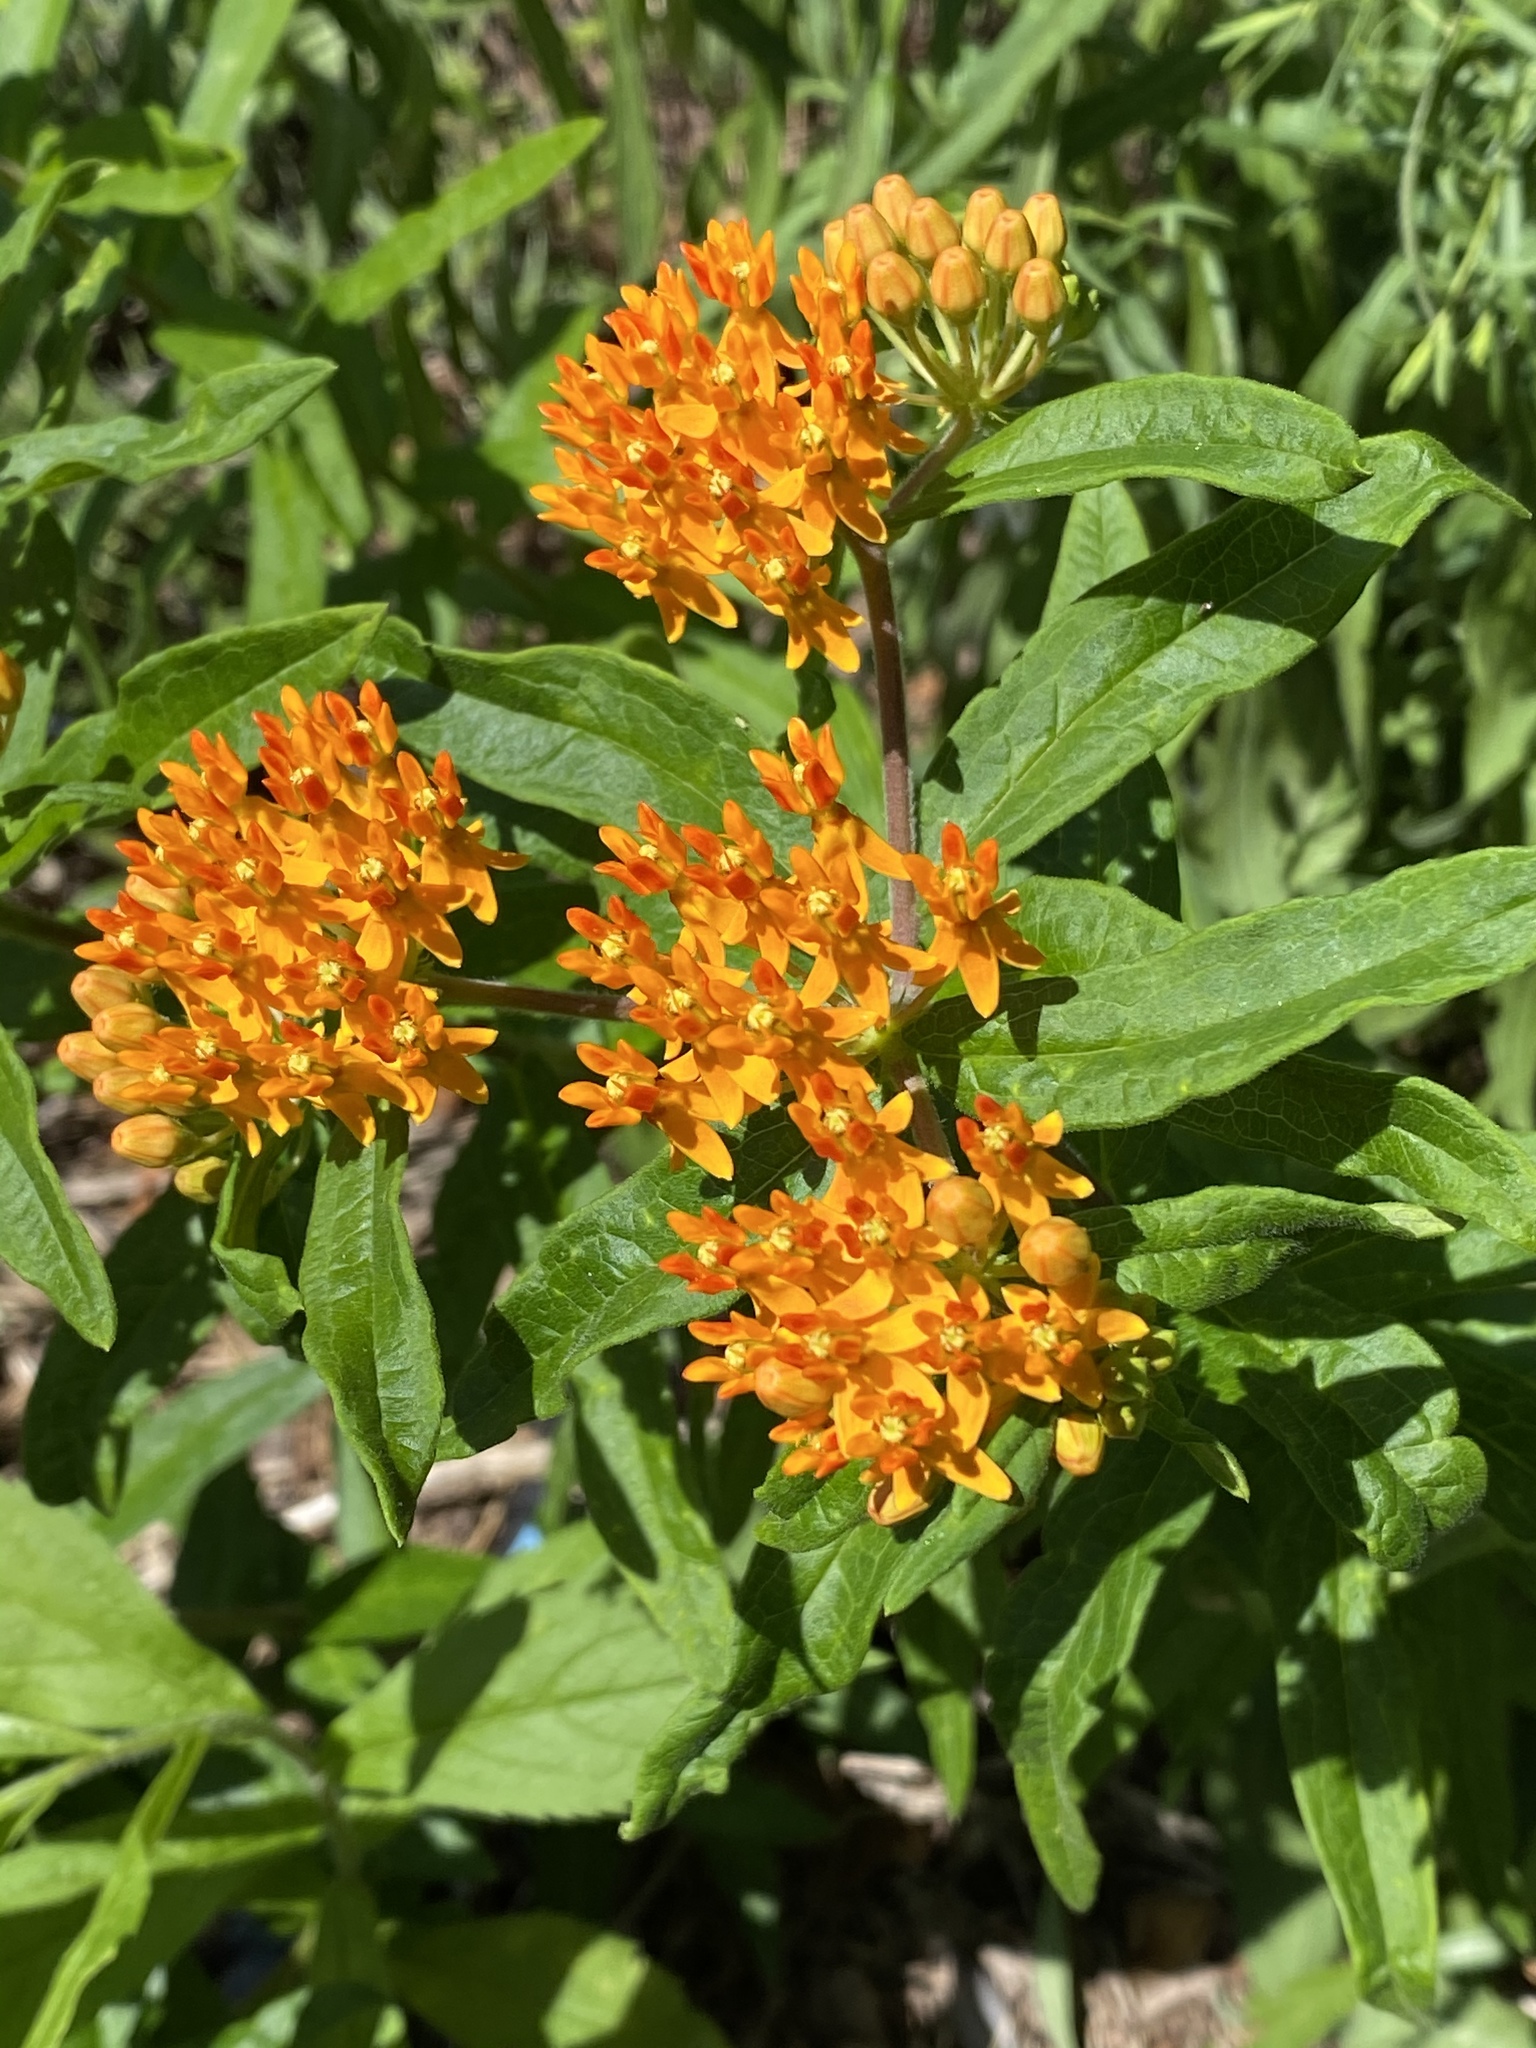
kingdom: Plantae
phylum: Tracheophyta
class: Magnoliopsida
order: Gentianales
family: Apocynaceae
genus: Asclepias
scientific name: Asclepias tuberosa
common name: Butterfly milkweed
